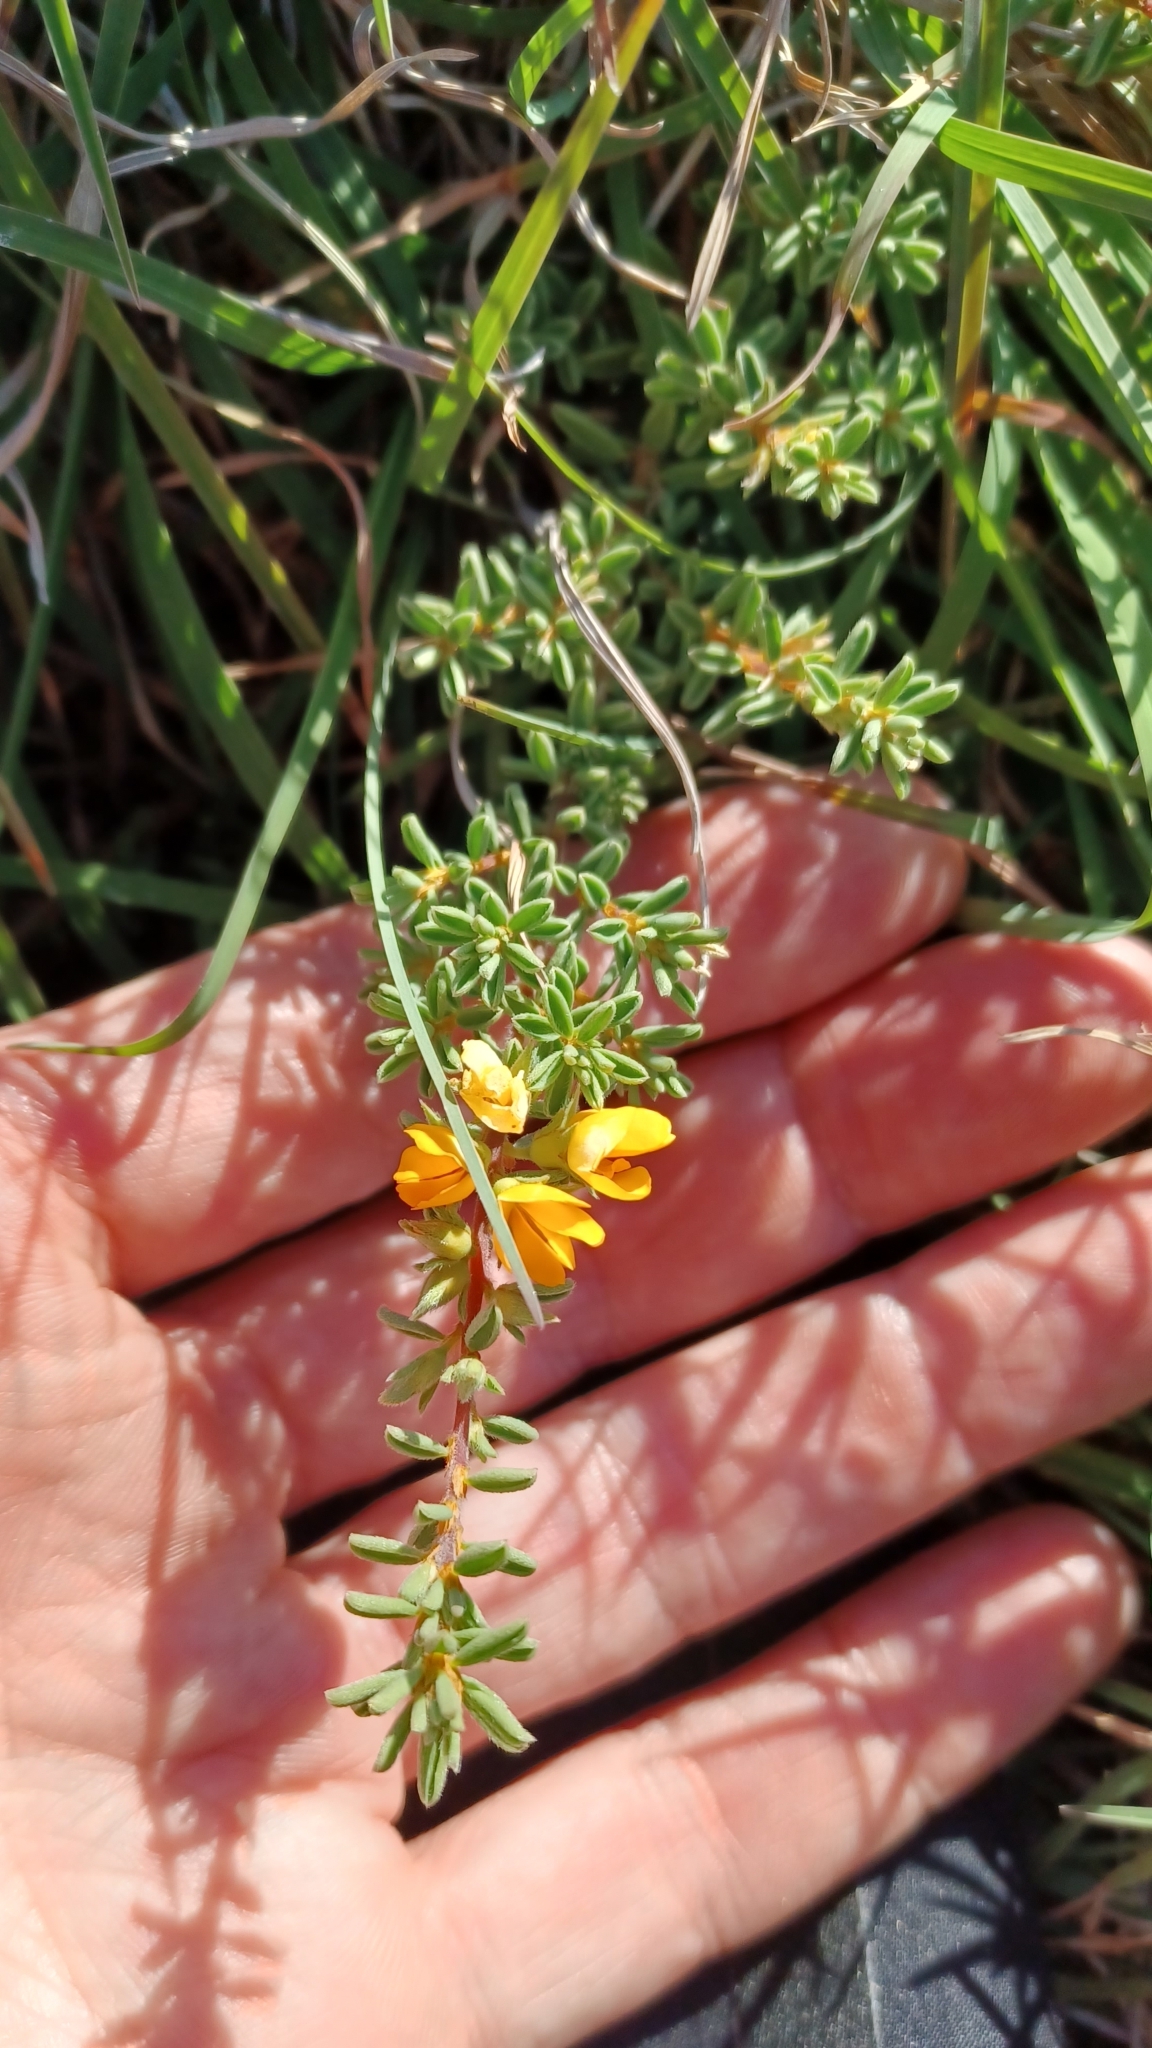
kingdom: Plantae
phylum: Tracheophyta
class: Magnoliopsida
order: Fabales
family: Fabaceae
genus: Pultenaea
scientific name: Pultenaea maritima
